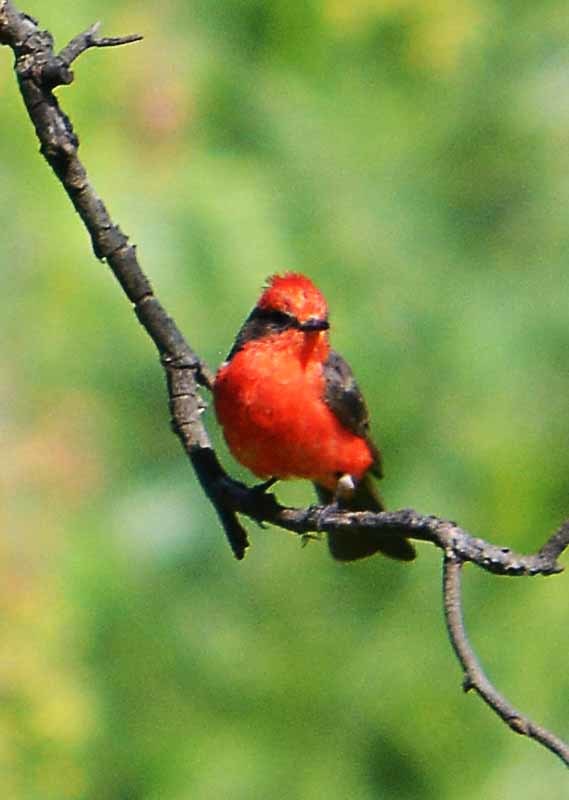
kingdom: Animalia
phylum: Chordata
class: Aves
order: Passeriformes
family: Tyrannidae
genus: Pyrocephalus
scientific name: Pyrocephalus rubinus
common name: Vermilion flycatcher
